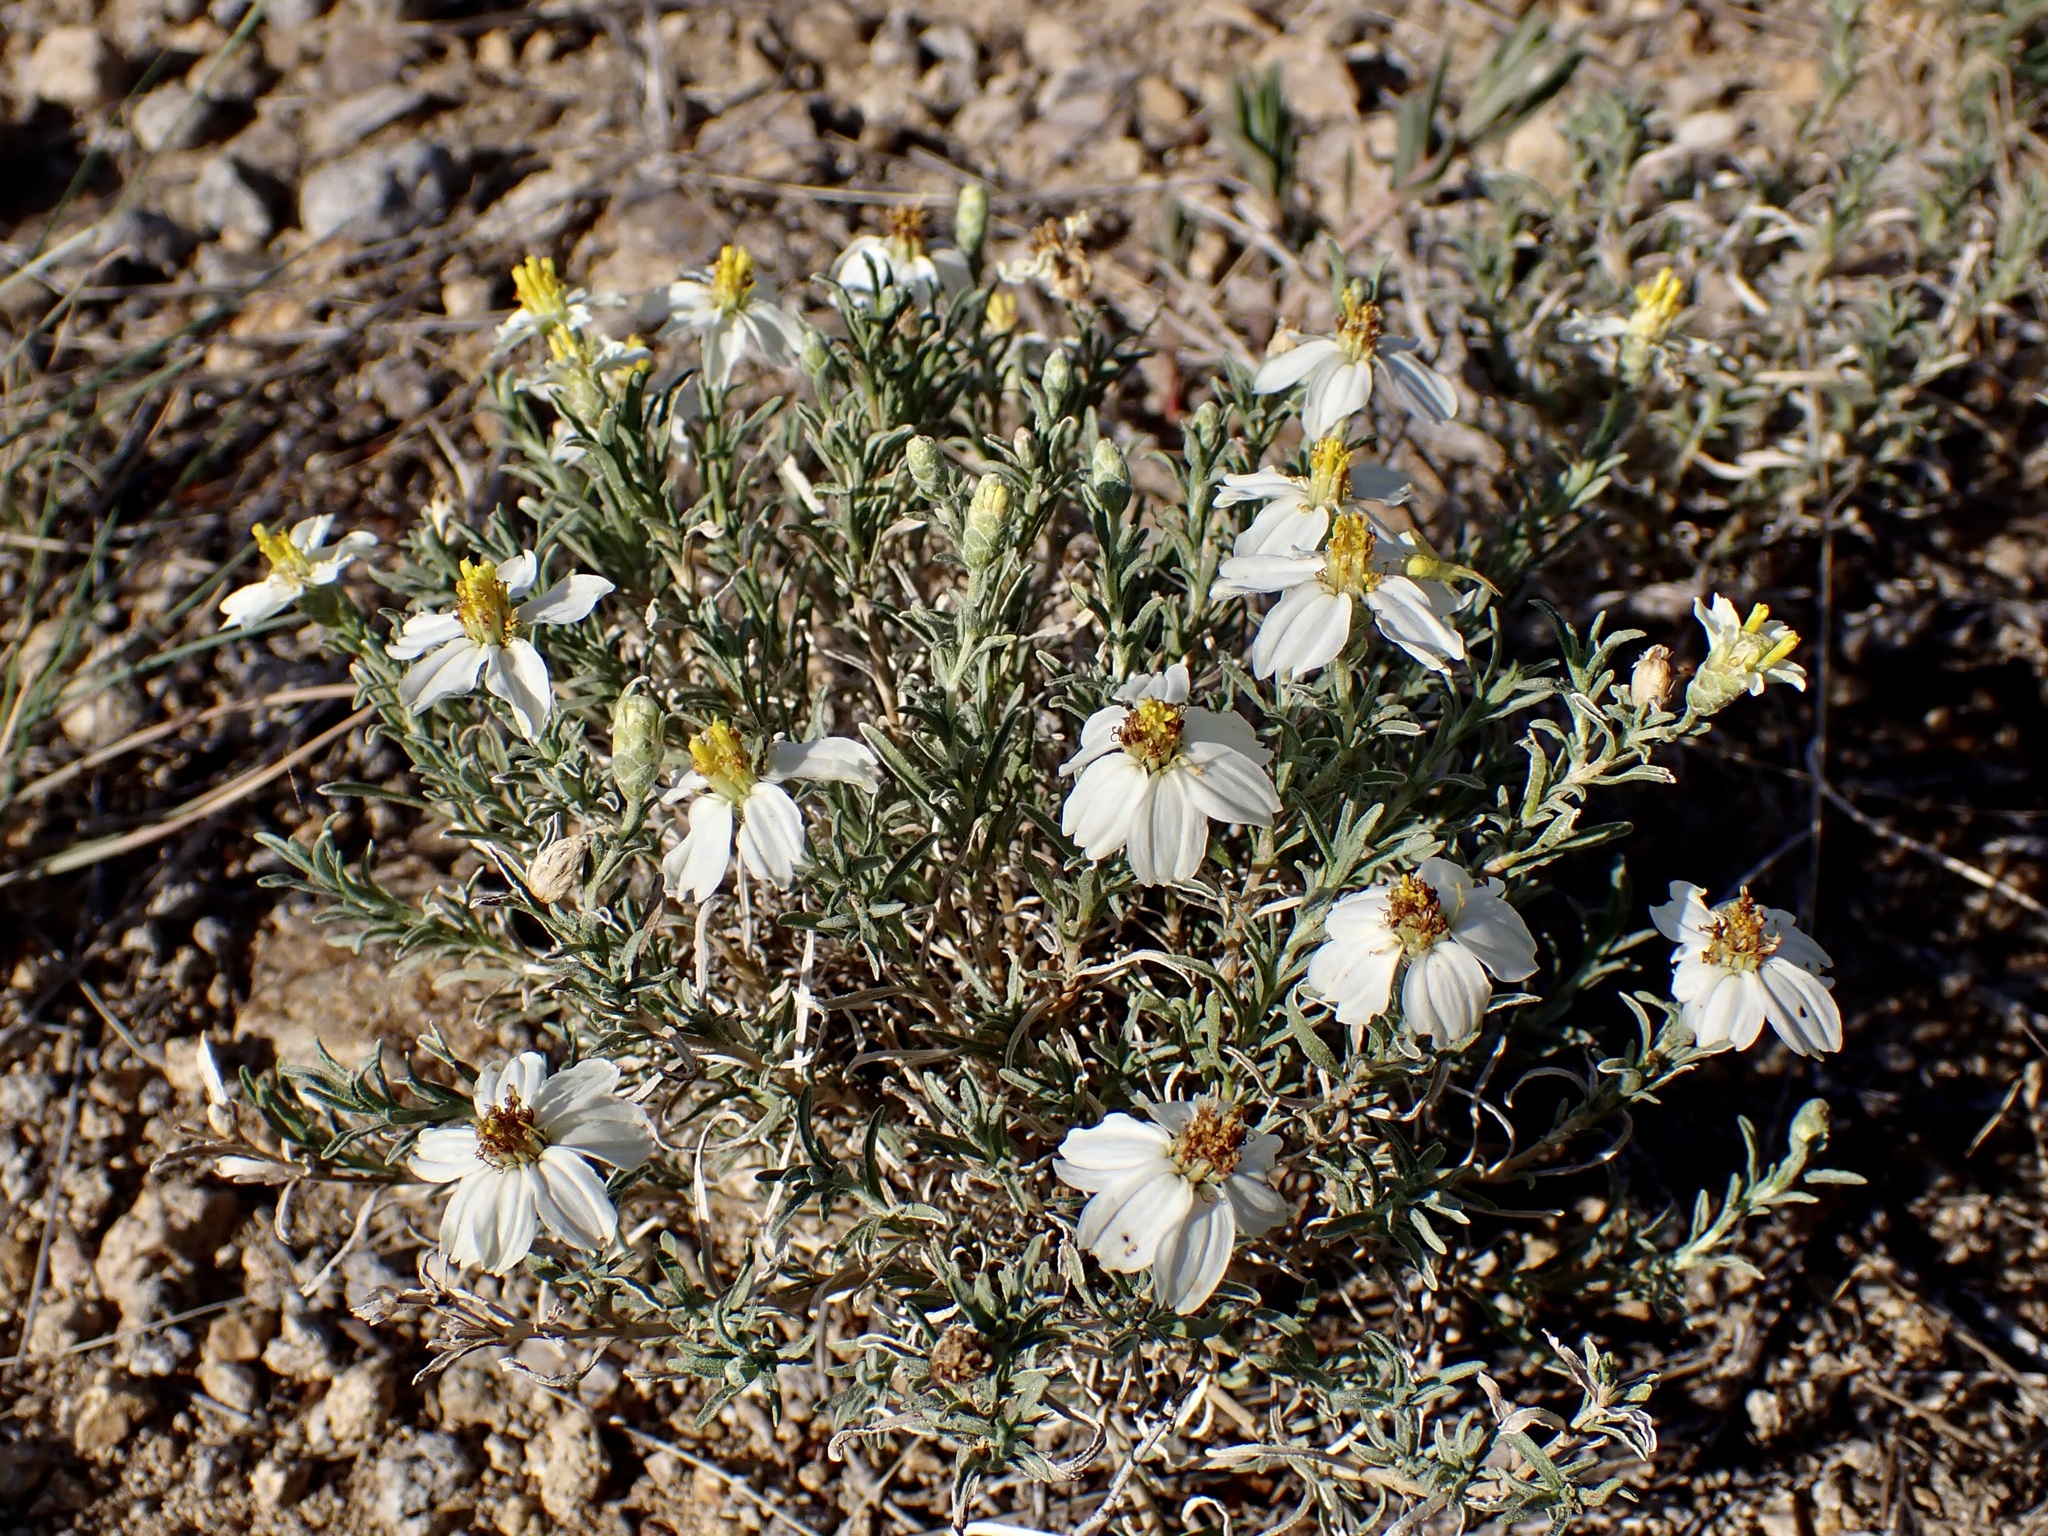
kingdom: Plantae
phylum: Tracheophyta
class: Magnoliopsida
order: Asterales
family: Asteraceae
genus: Zinnia
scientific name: Zinnia acerosa
